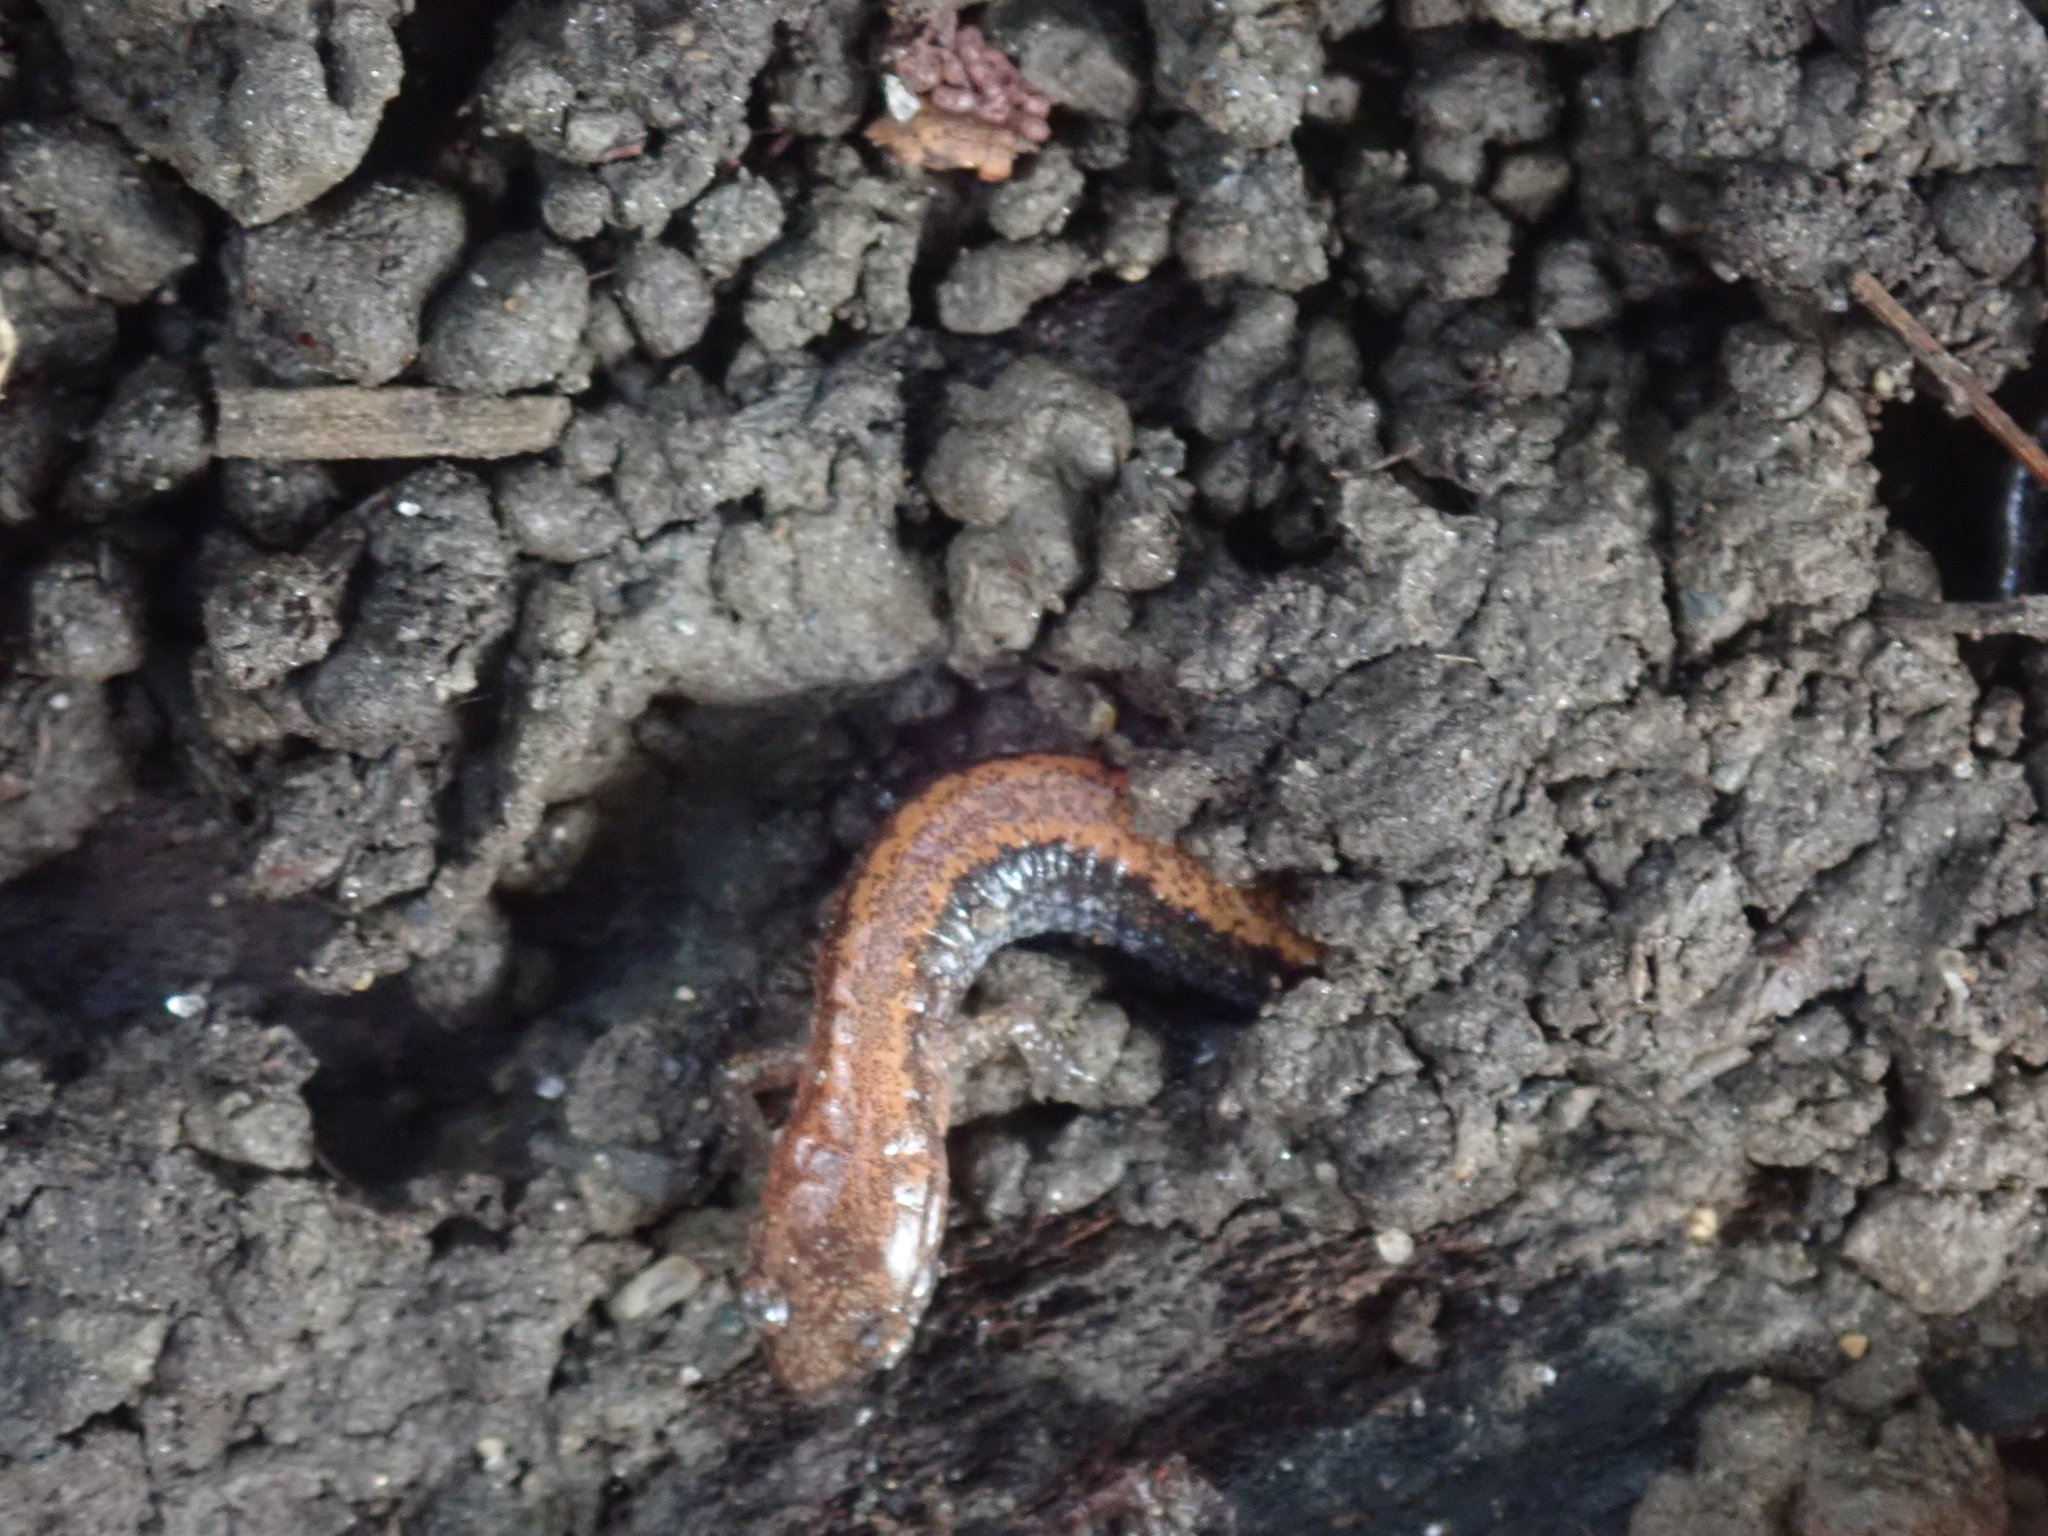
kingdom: Animalia
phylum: Chordata
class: Amphibia
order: Caudata
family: Plethodontidae
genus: Plethodon
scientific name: Plethodon cinereus
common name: Redback salamander
